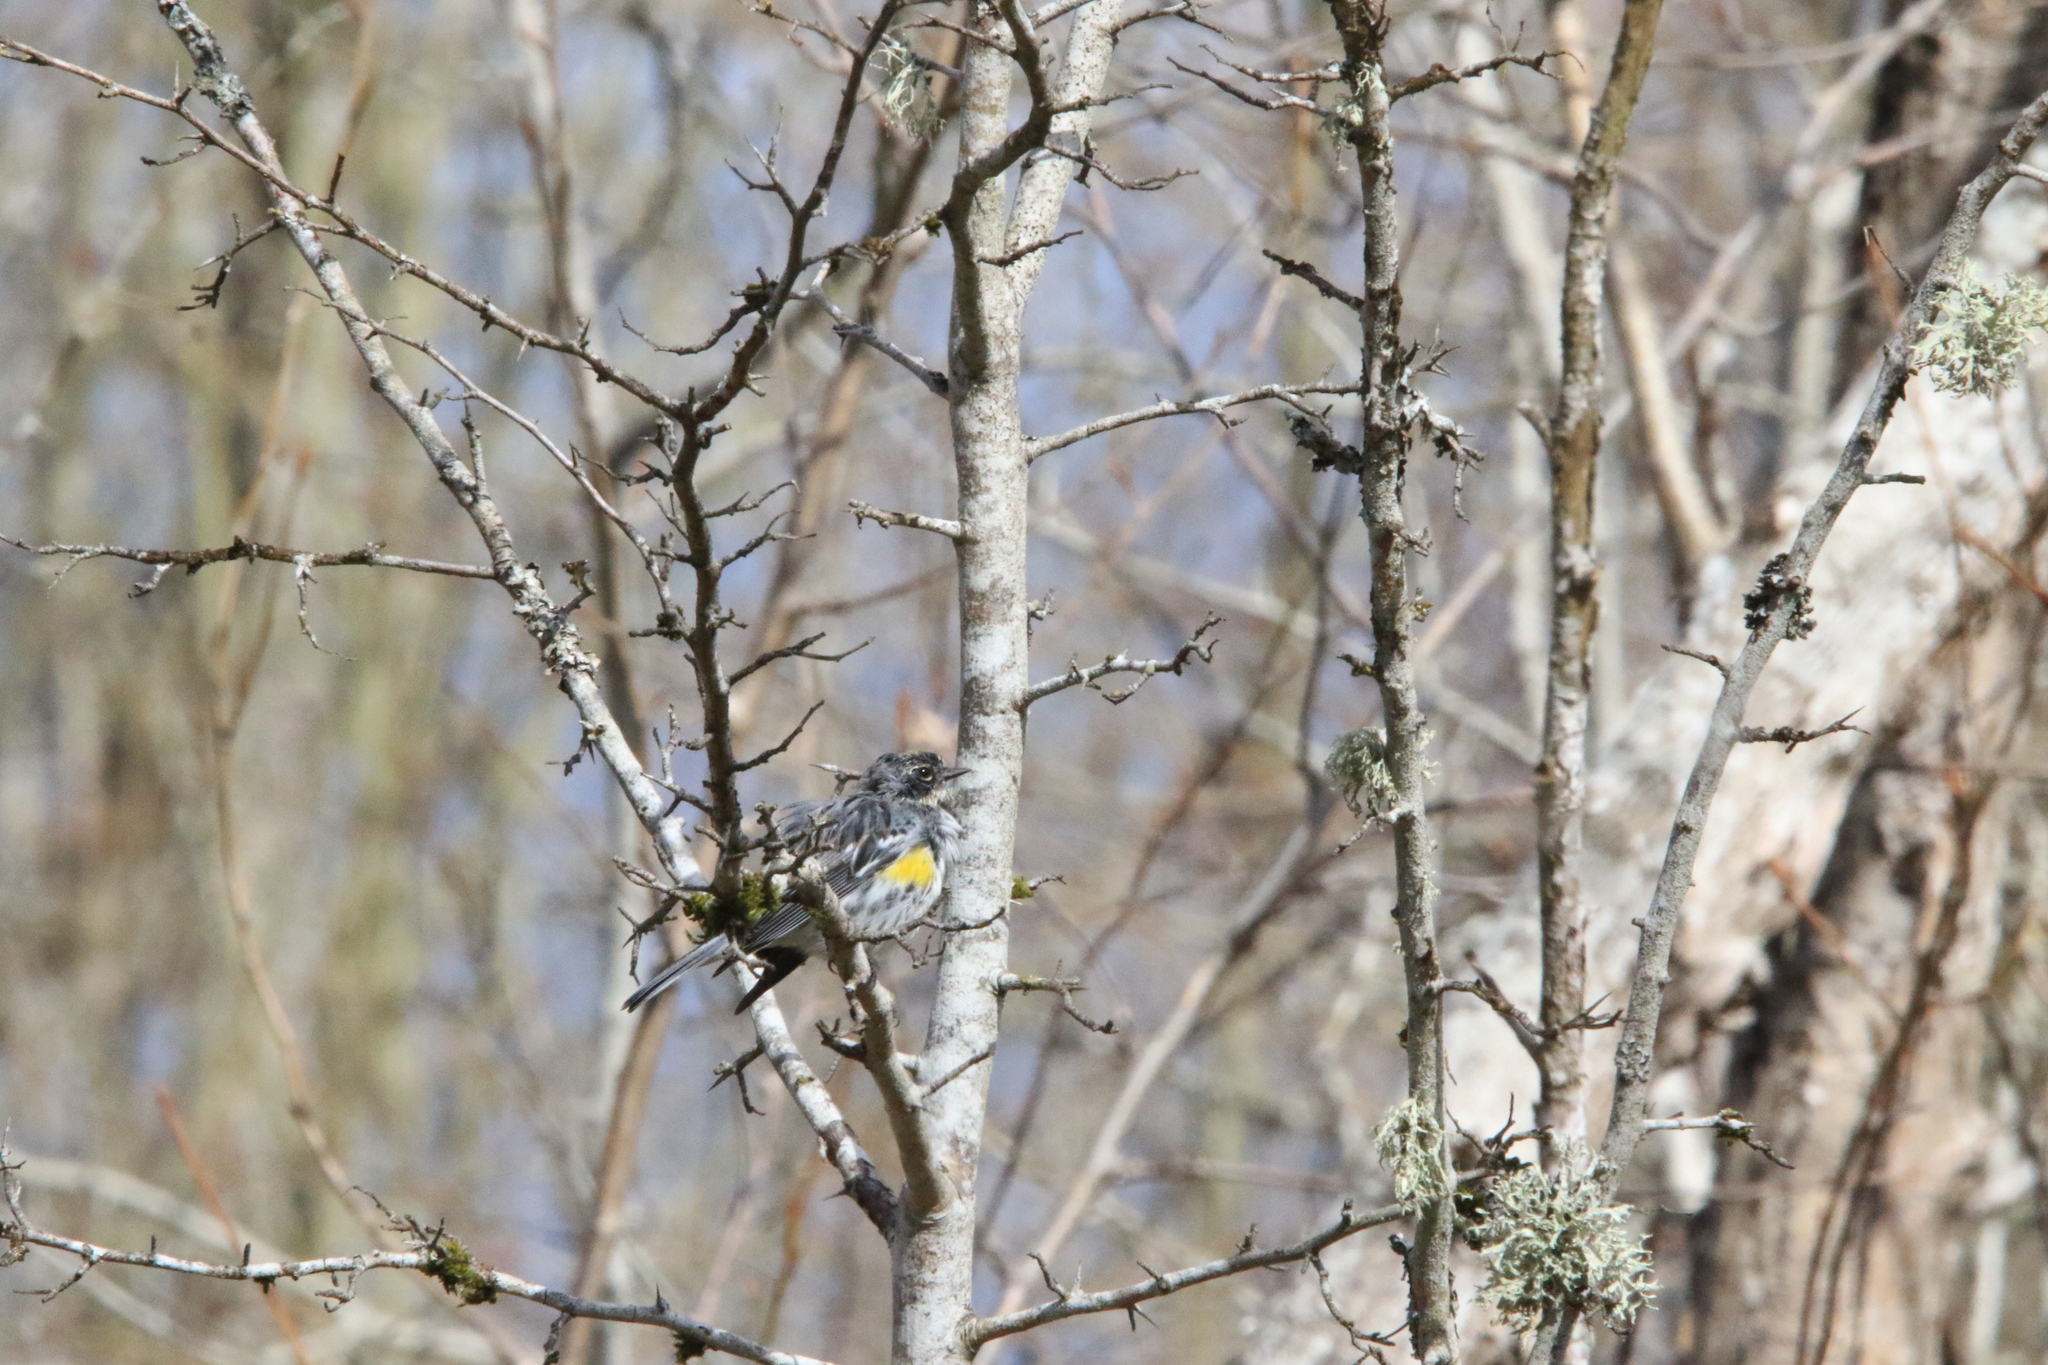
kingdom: Animalia
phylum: Chordata
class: Aves
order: Passeriformes
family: Parulidae
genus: Setophaga
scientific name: Setophaga coronata
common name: Myrtle warbler
